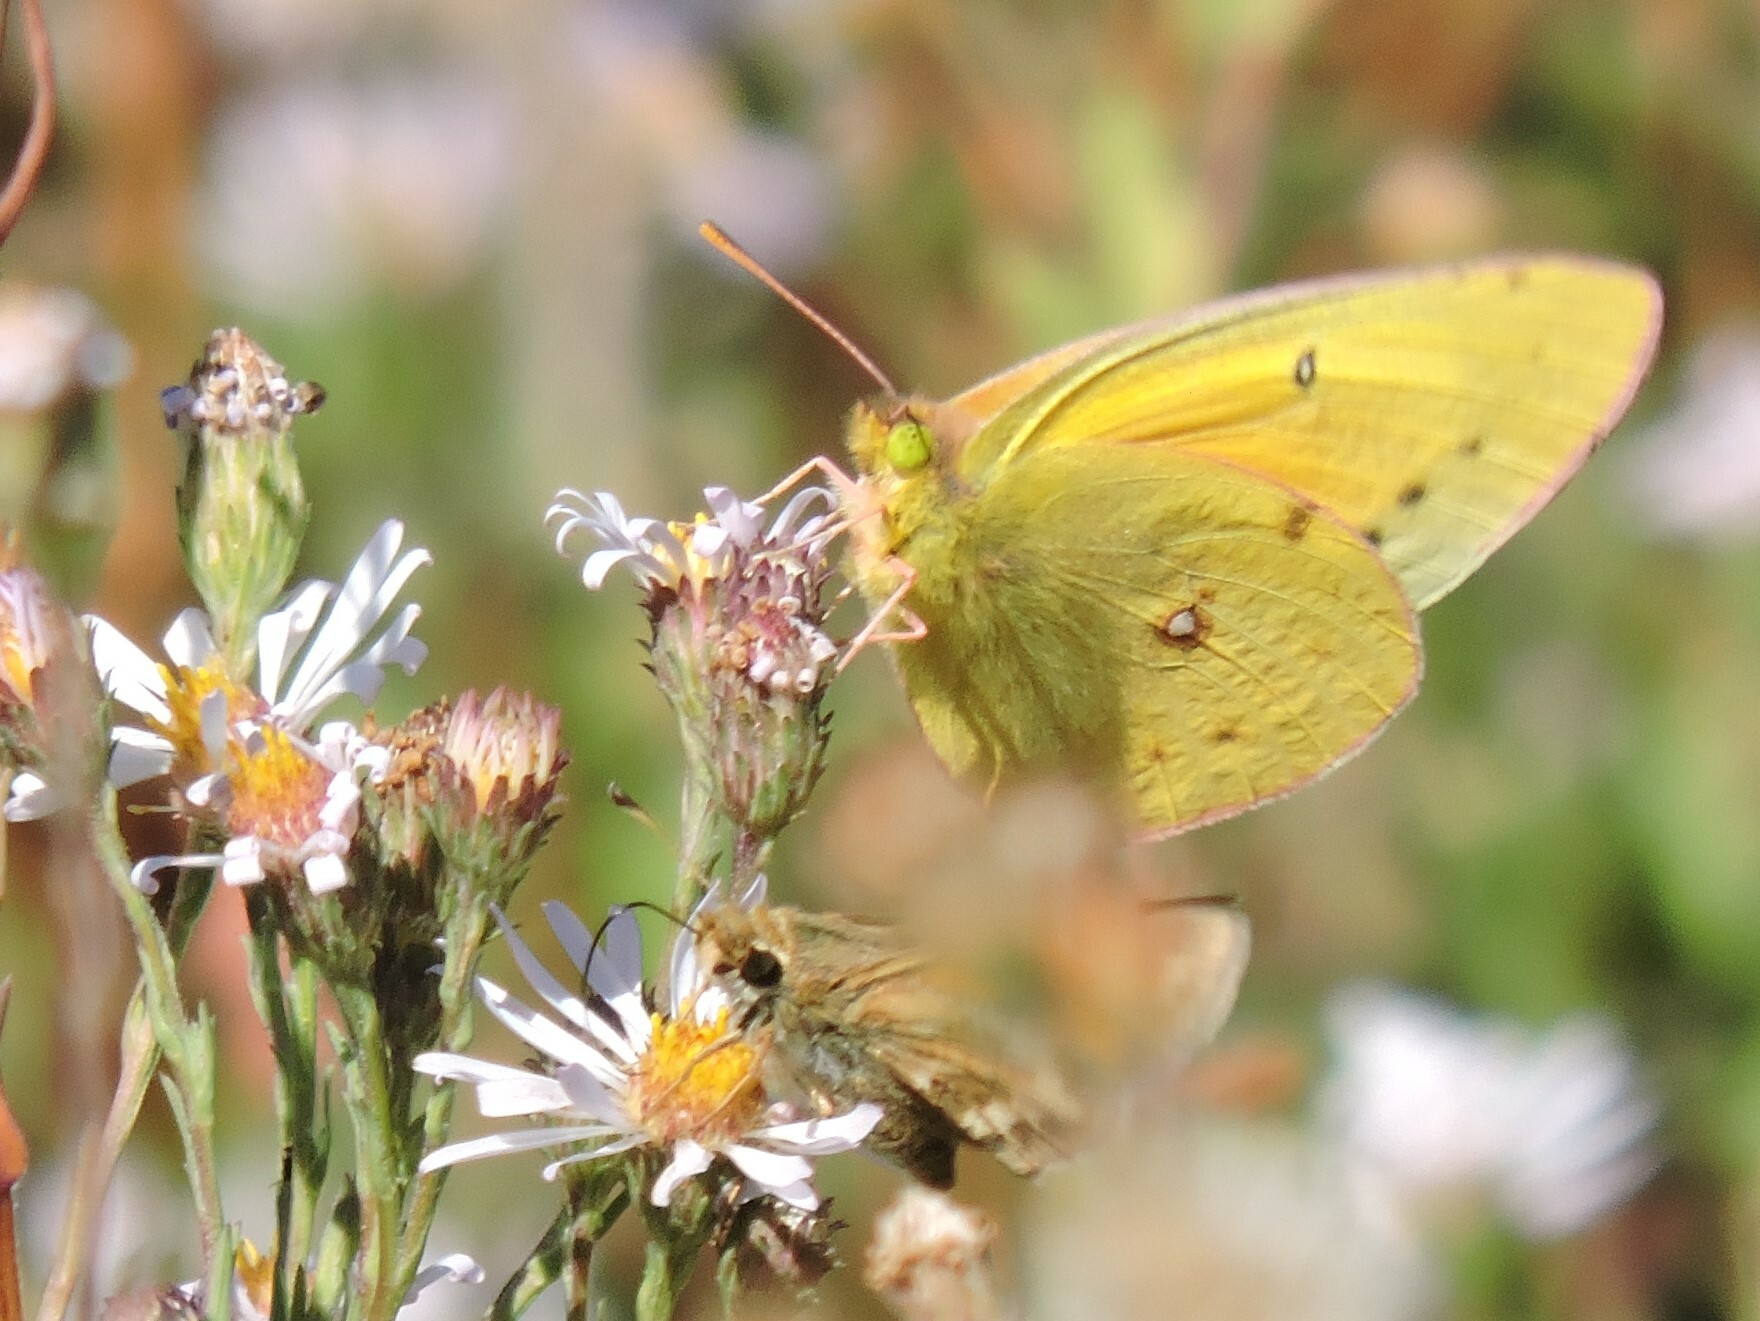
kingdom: Animalia
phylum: Arthropoda
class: Insecta
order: Lepidoptera
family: Pieridae
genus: Colias
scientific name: Colias eurytheme
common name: Alfalfa butterfly
